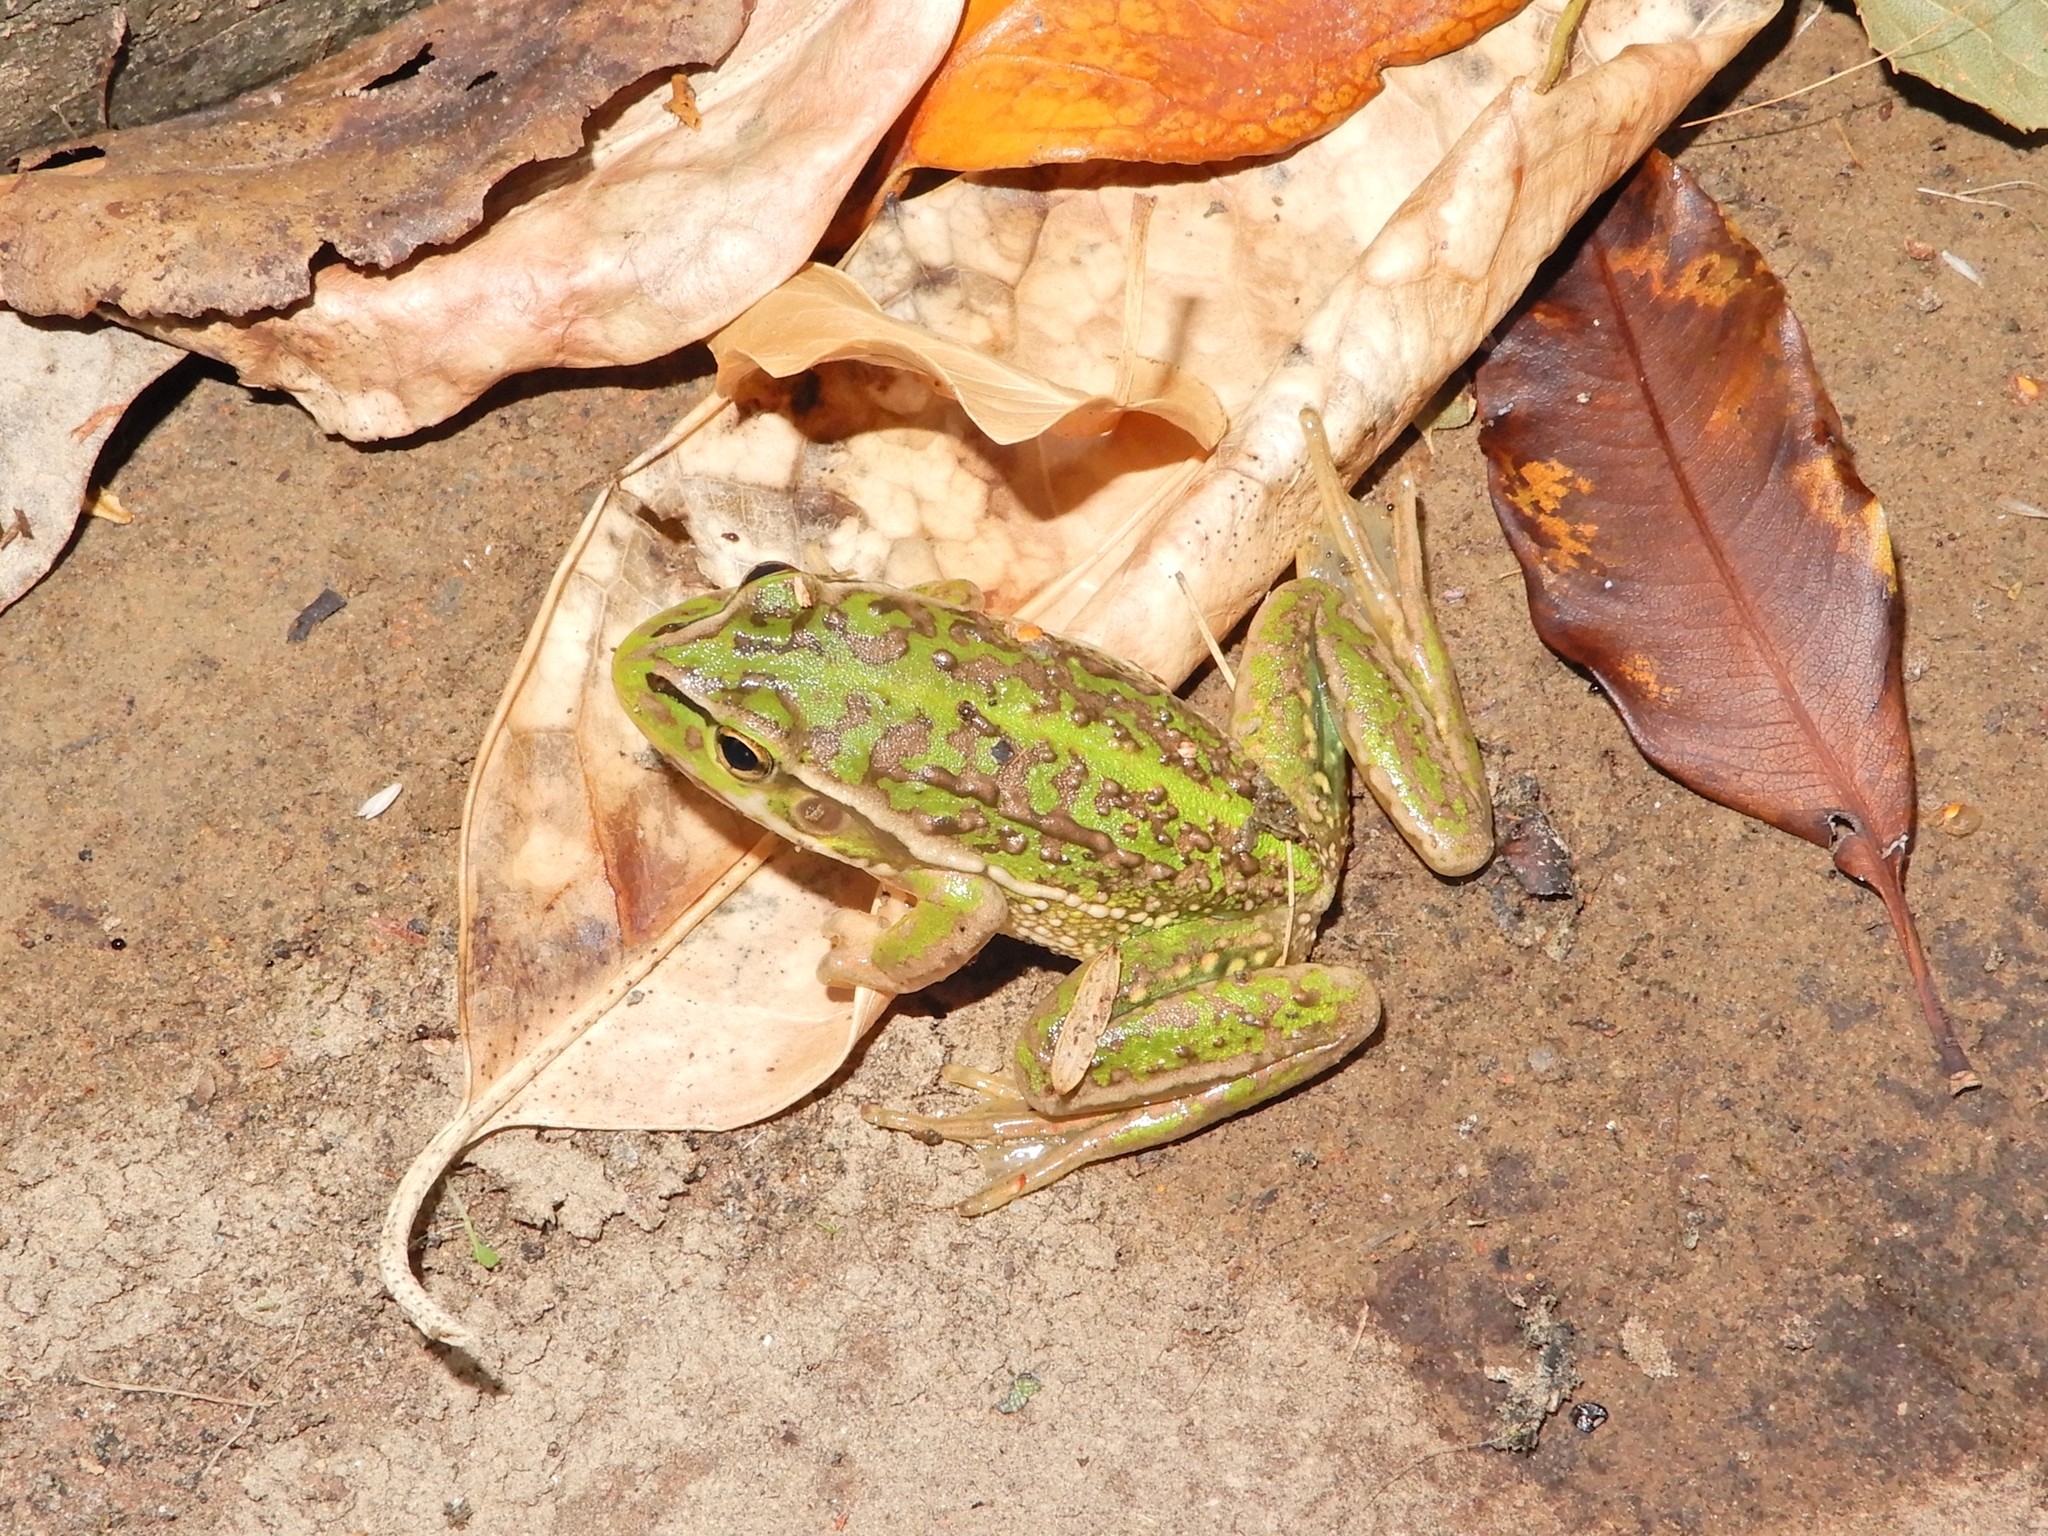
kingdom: Animalia
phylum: Chordata
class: Amphibia
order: Anura
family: Pelodryadidae
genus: Ranoidea
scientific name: Ranoidea raniformis
